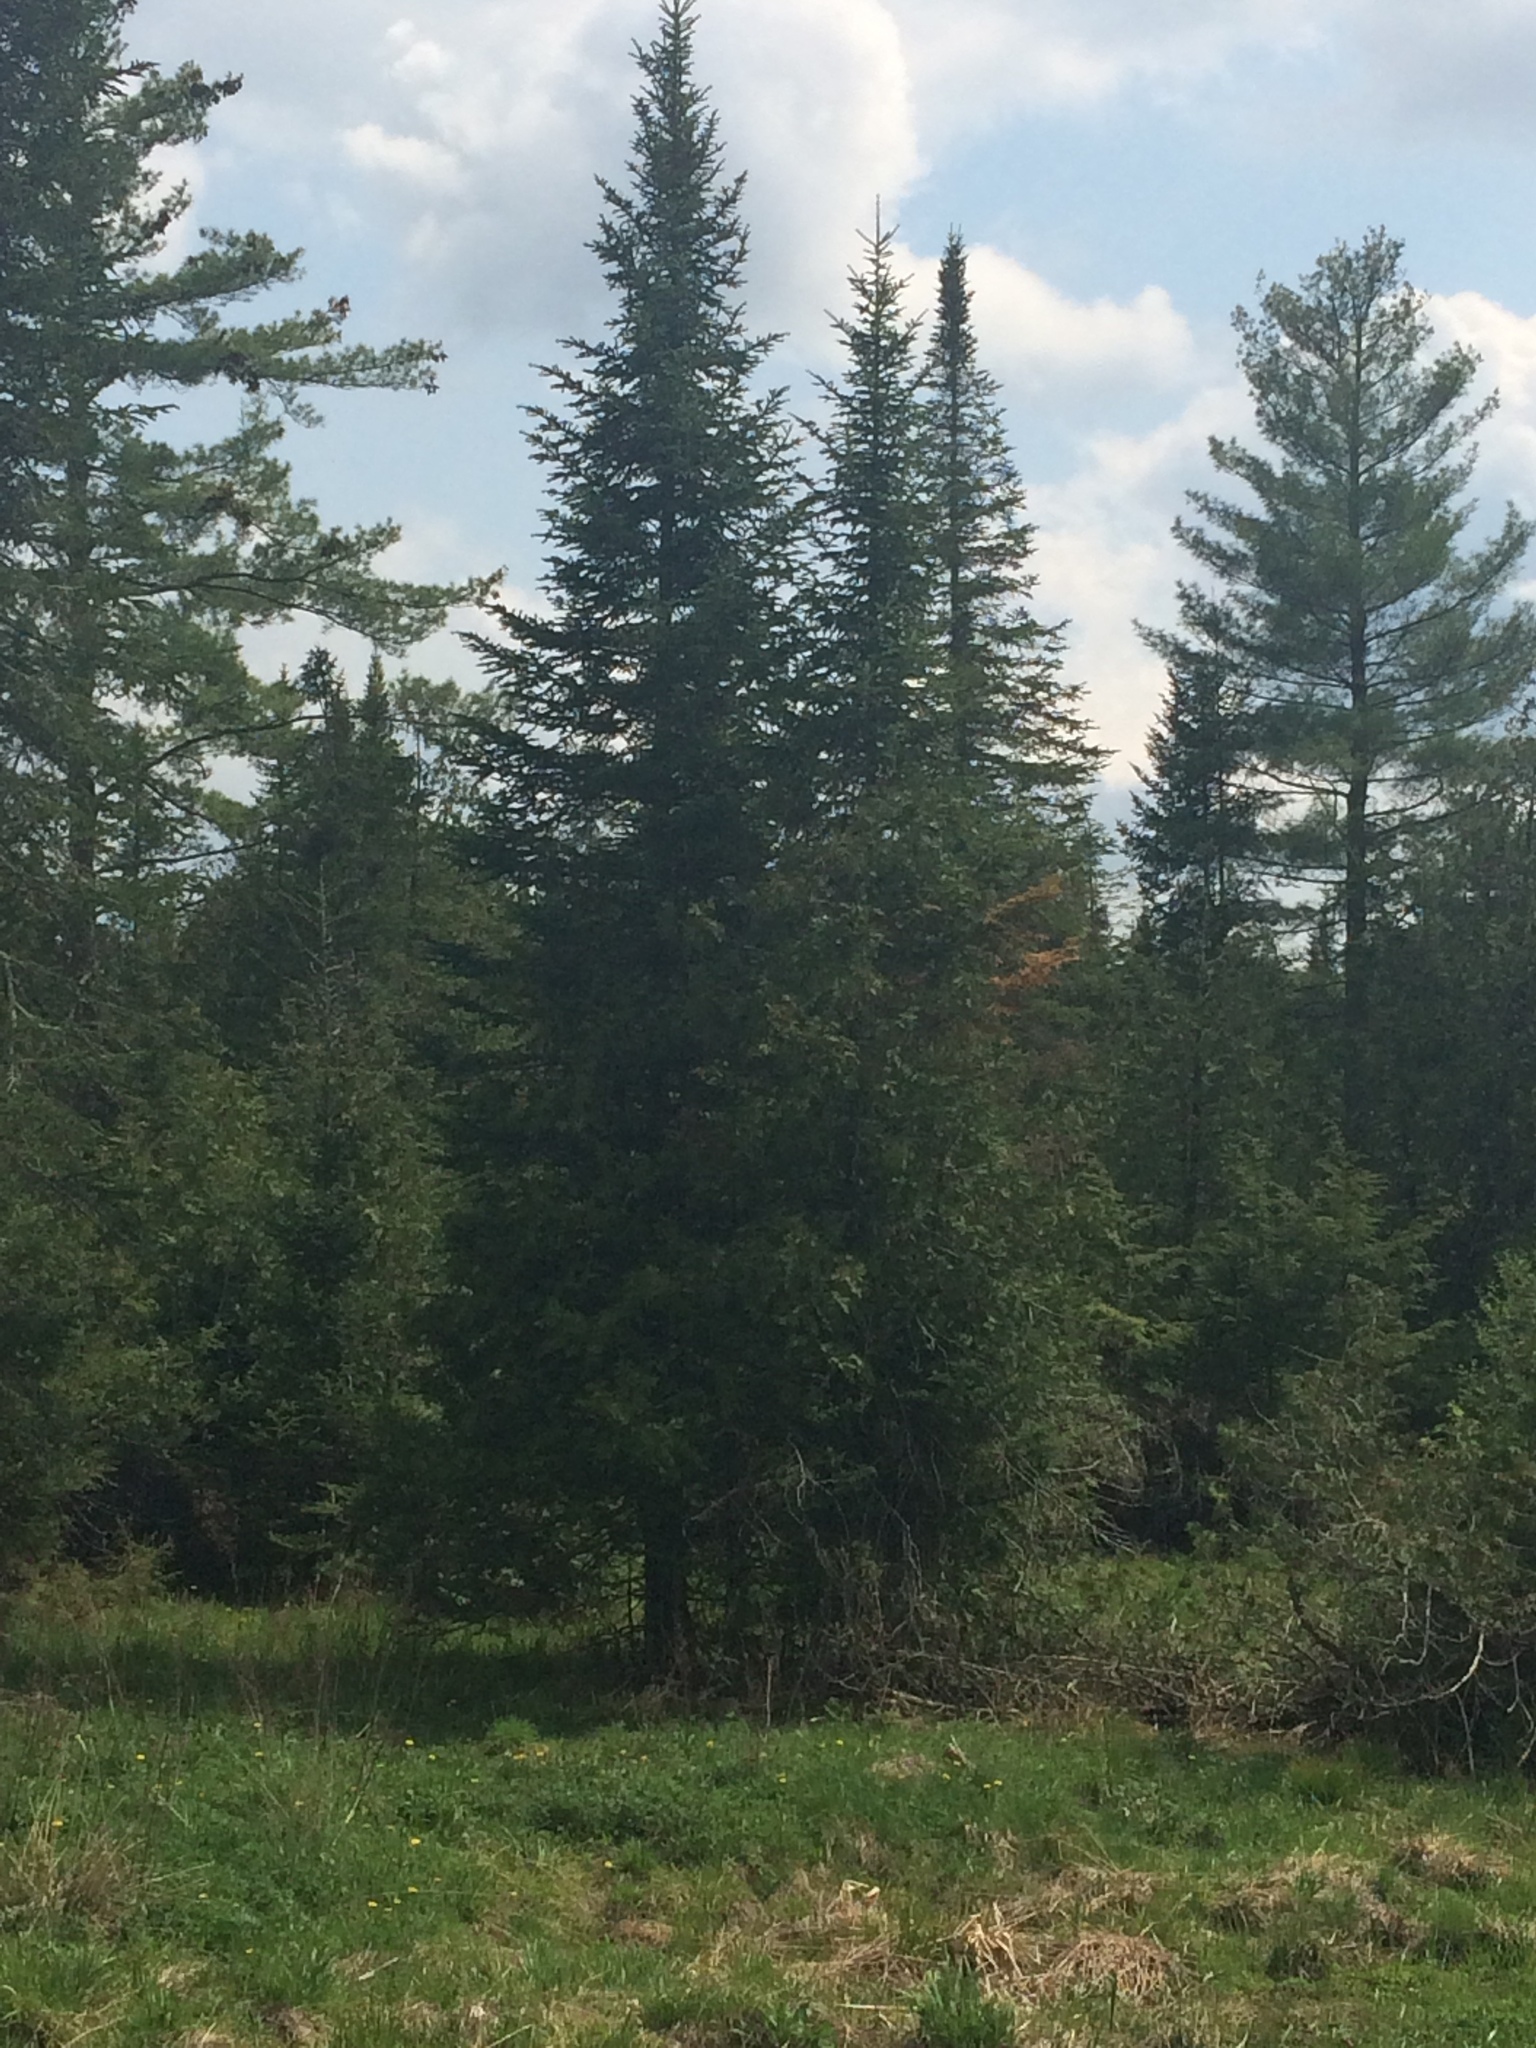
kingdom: Plantae
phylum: Tracheophyta
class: Pinopsida
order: Pinales
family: Pinaceae
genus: Abies
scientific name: Abies balsamea
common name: Balsam fir
